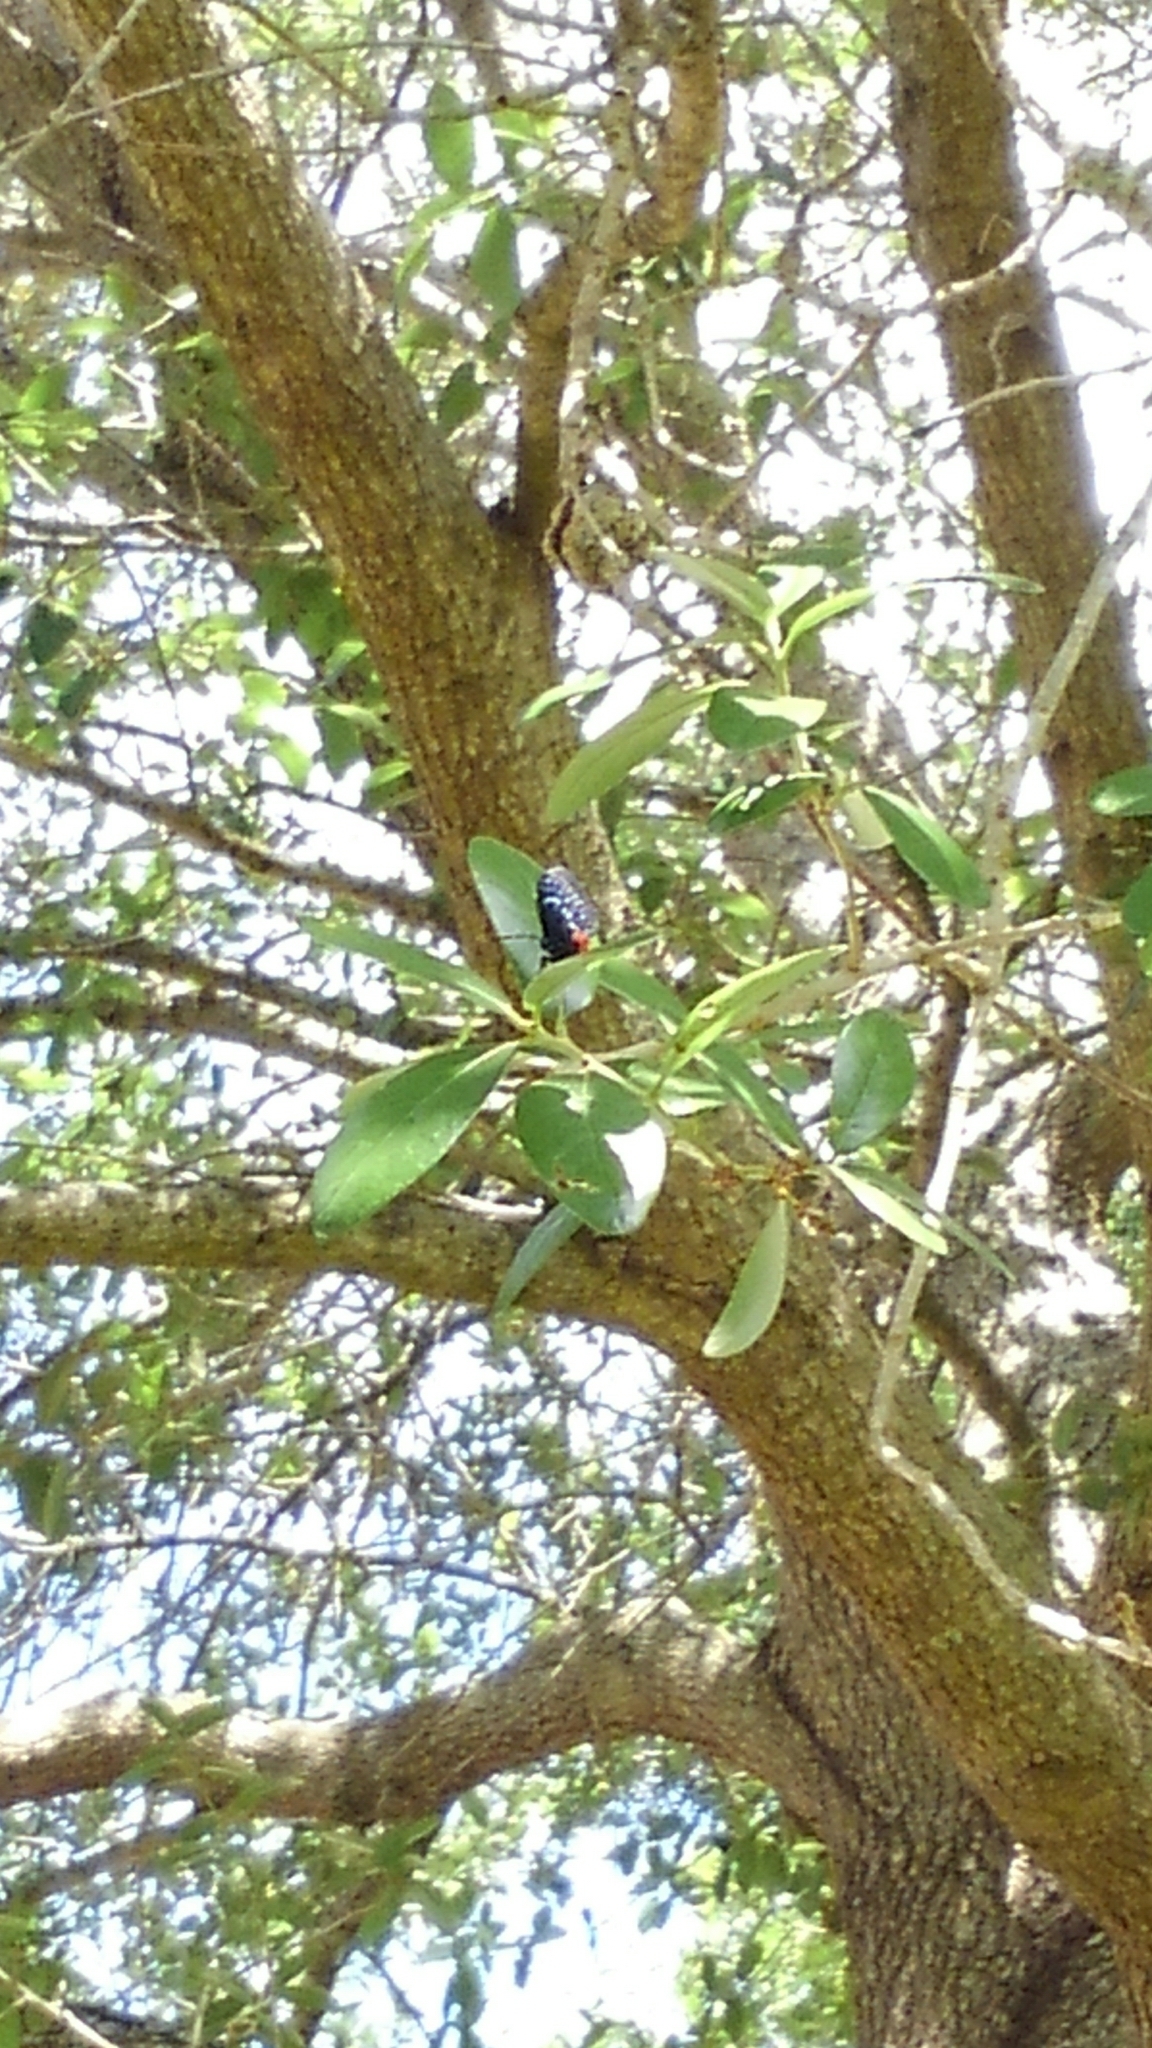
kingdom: Animalia
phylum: Arthropoda
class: Insecta
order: Lepidoptera
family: Lycaenidae
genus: Eumaeus
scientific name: Eumaeus atala
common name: Atala
